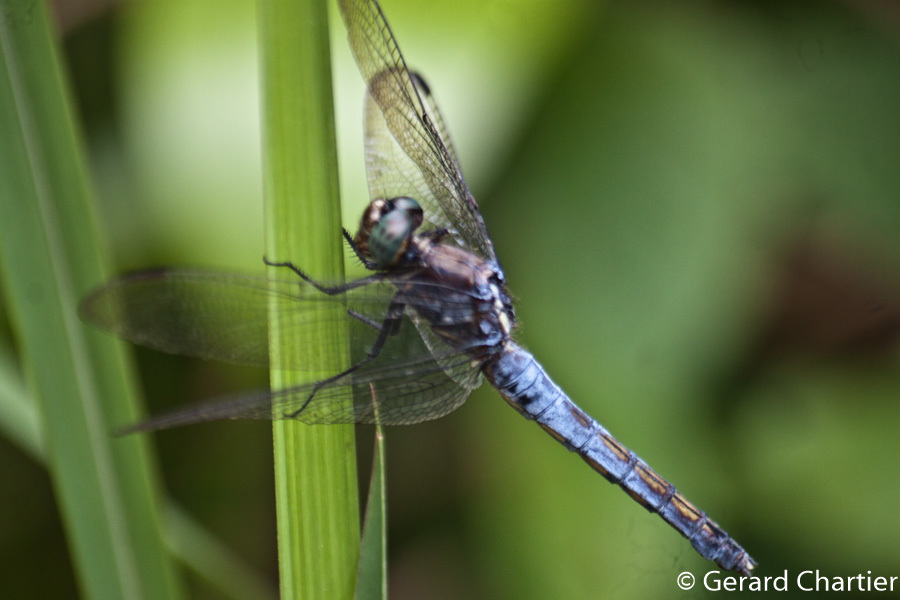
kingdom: Animalia
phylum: Arthropoda
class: Insecta
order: Odonata
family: Libellulidae
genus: Orthetrum
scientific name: Orthetrum glaucum
